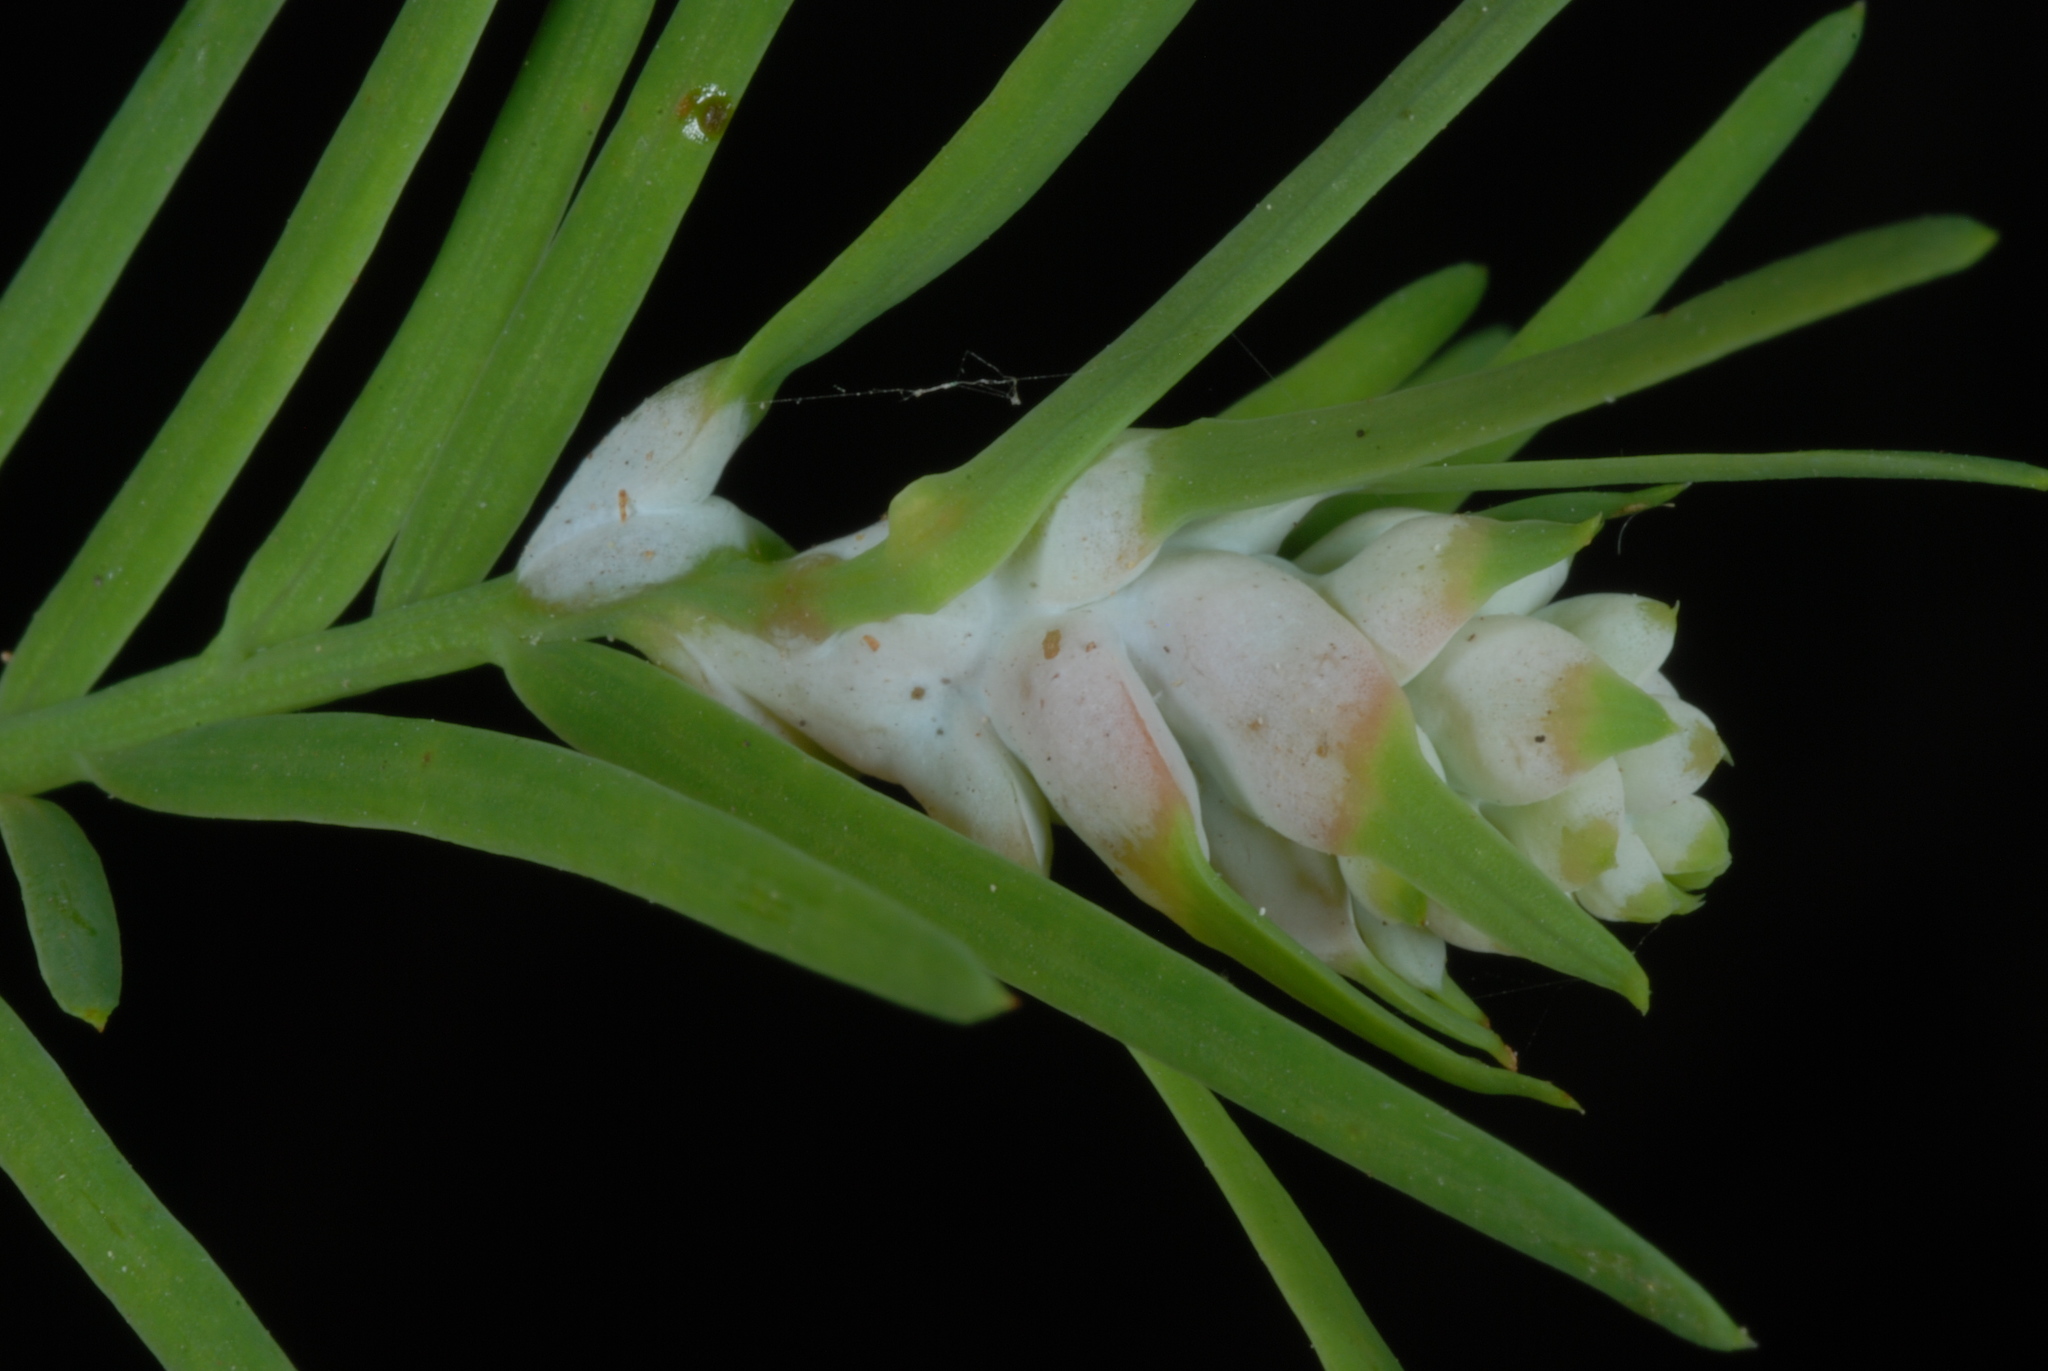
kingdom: Animalia
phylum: Arthropoda
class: Insecta
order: Diptera
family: Cecidomyiidae
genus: Taxodiomyia
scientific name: Taxodiomyia cupressiananassa
